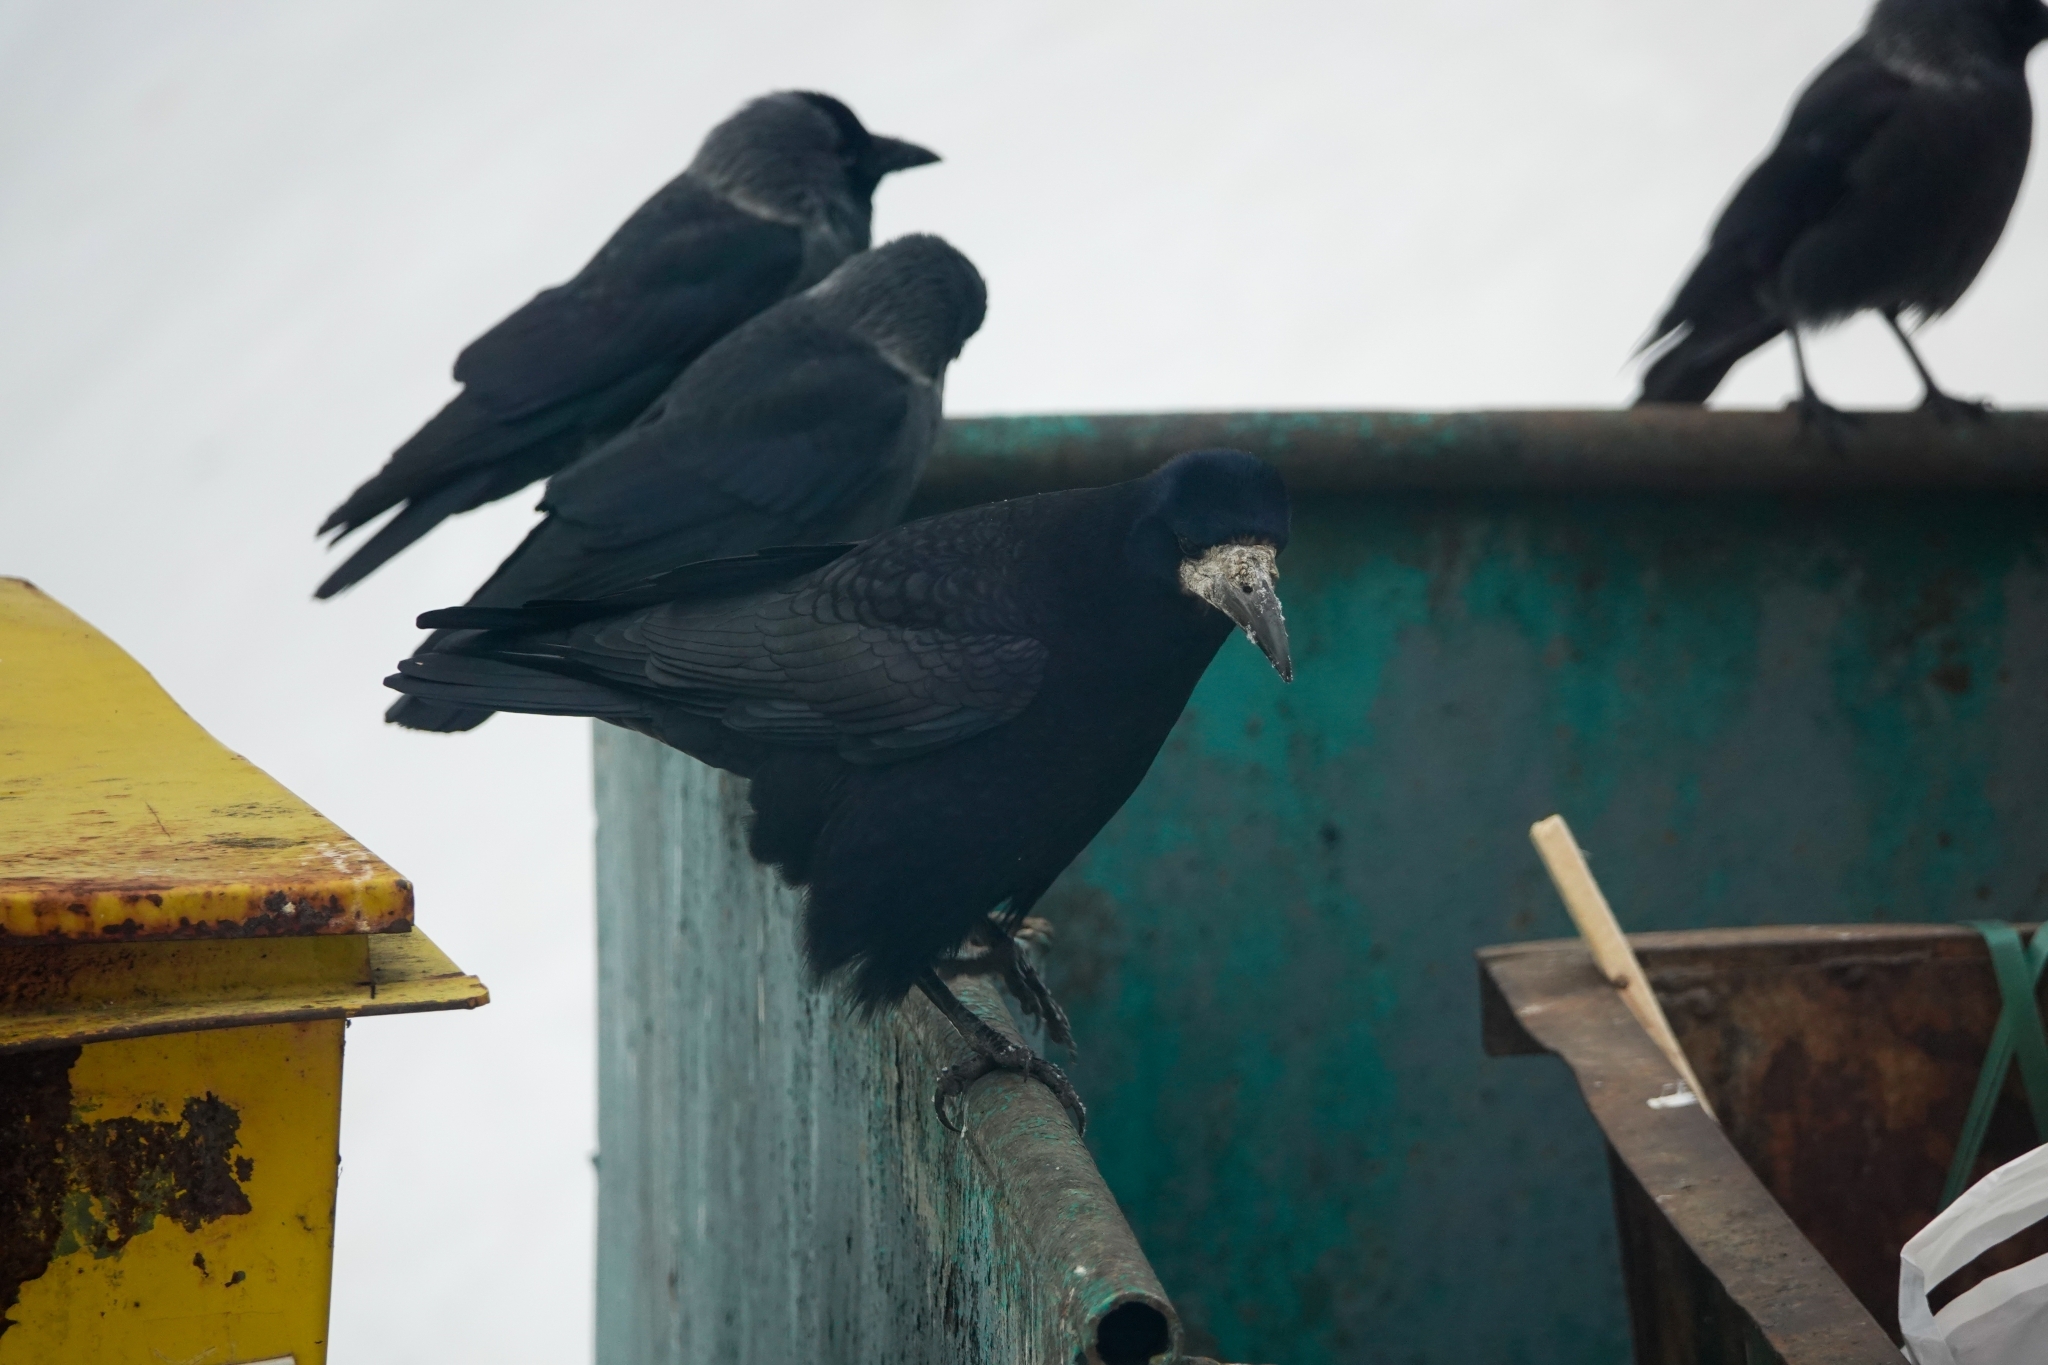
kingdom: Animalia
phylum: Chordata
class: Aves
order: Passeriformes
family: Corvidae
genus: Corvus
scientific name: Corvus frugilegus
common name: Rook
